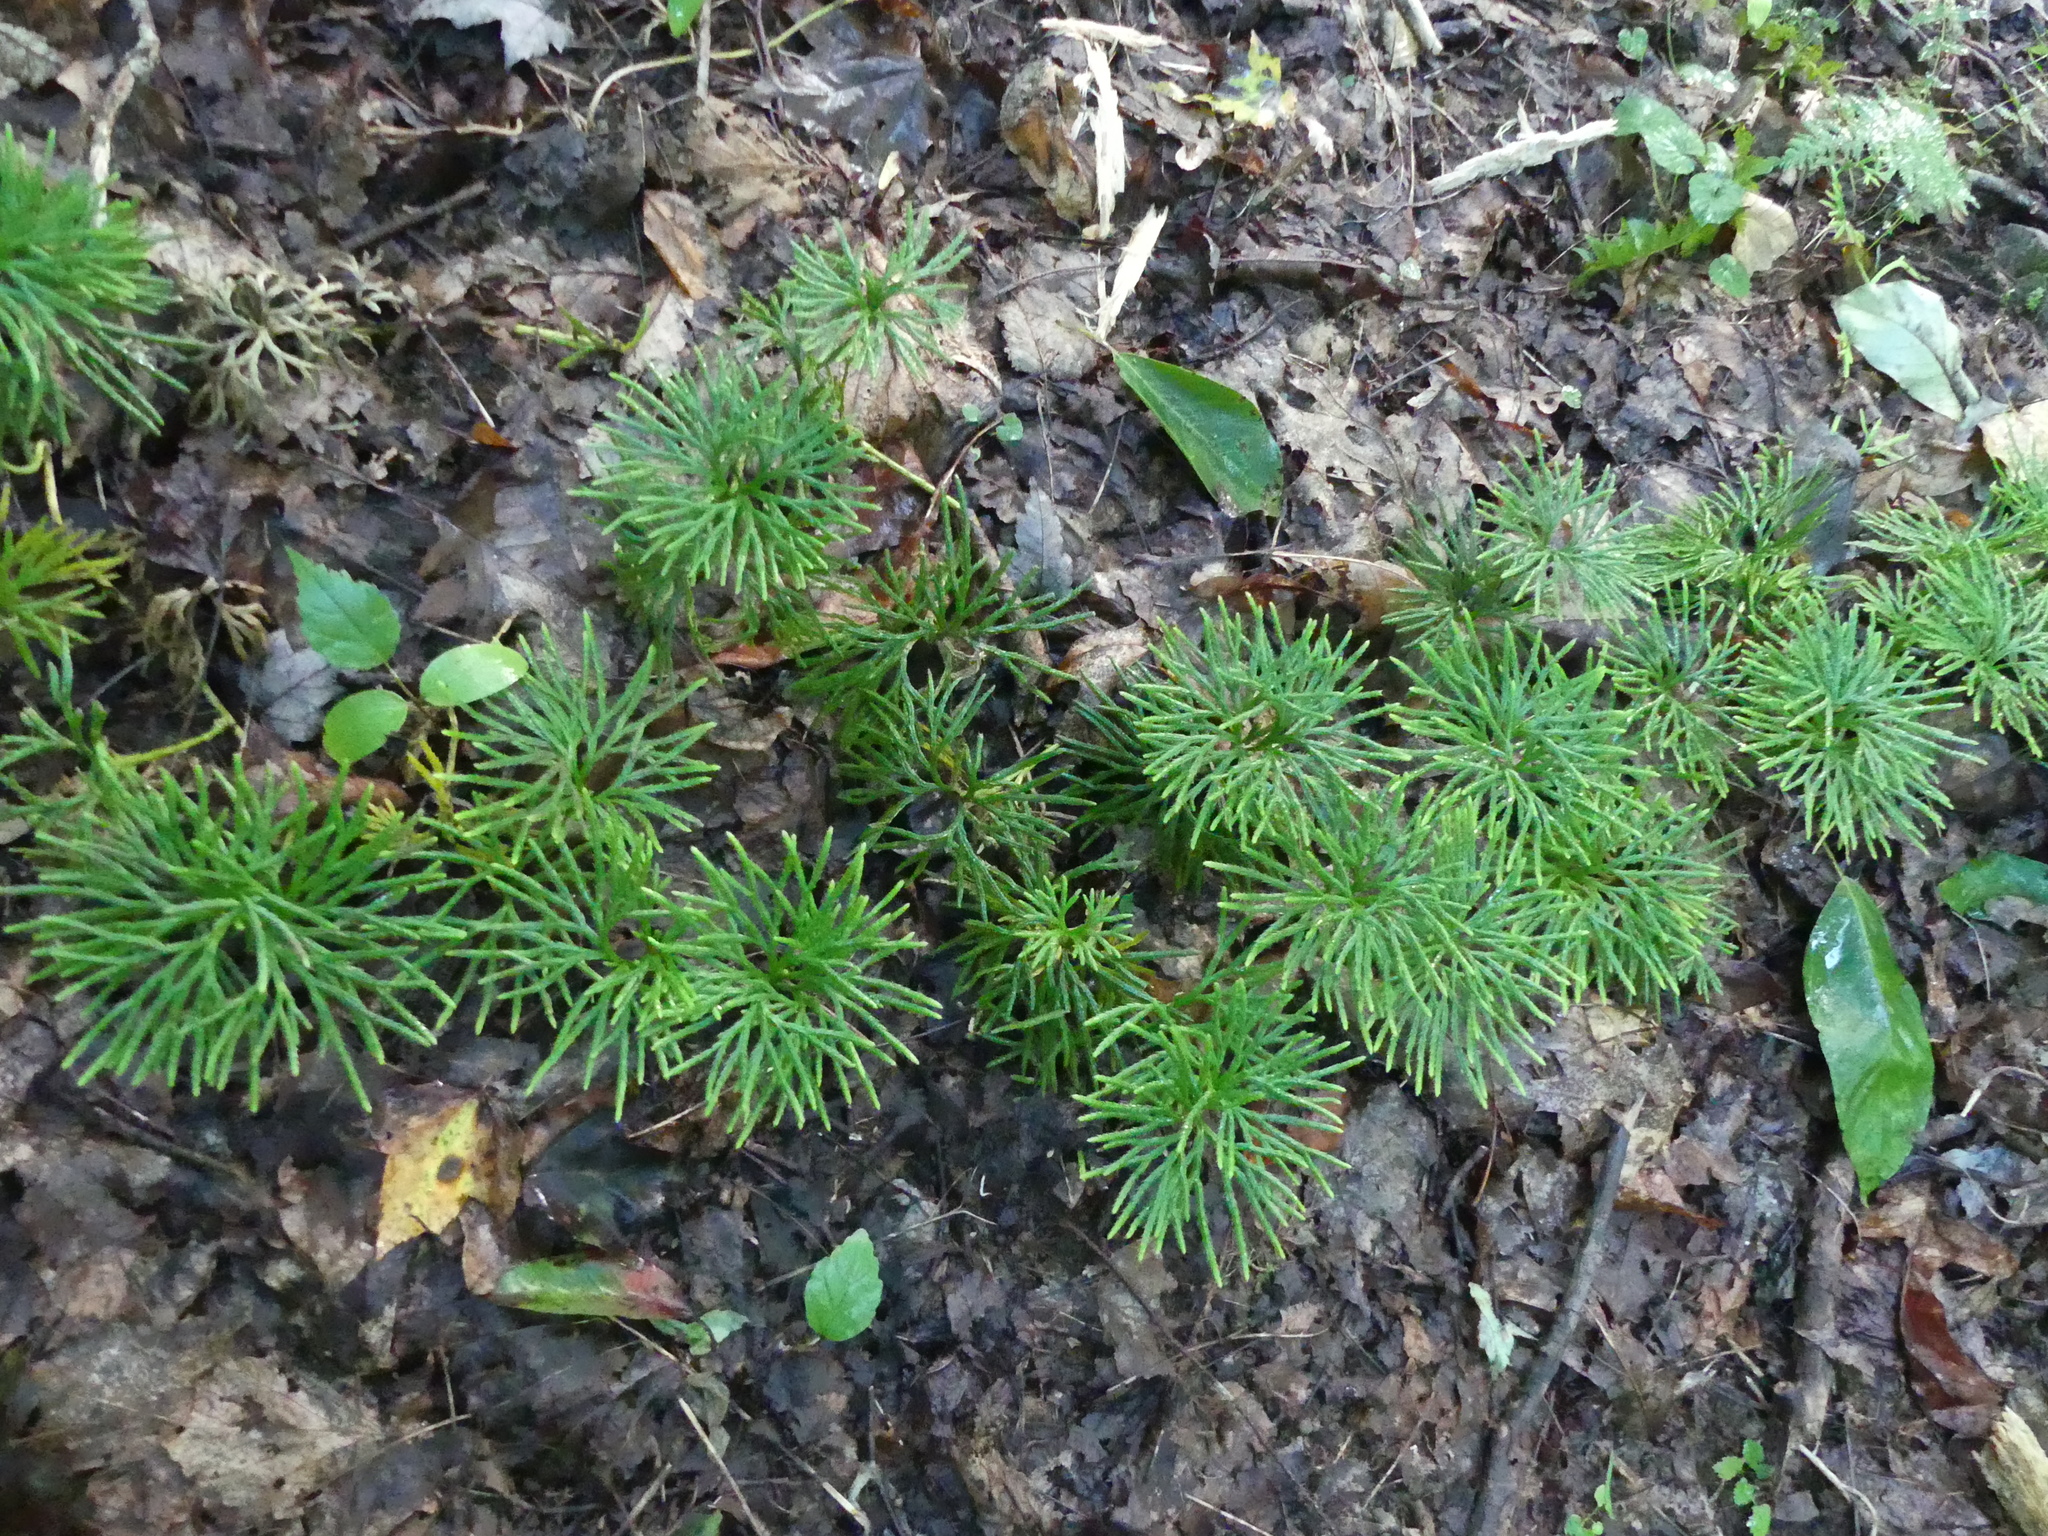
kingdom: Plantae
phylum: Tracheophyta
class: Lycopodiopsida
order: Lycopodiales
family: Lycopodiaceae
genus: Diphasiastrum
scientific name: Diphasiastrum digitatum
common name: Southern running-pine
